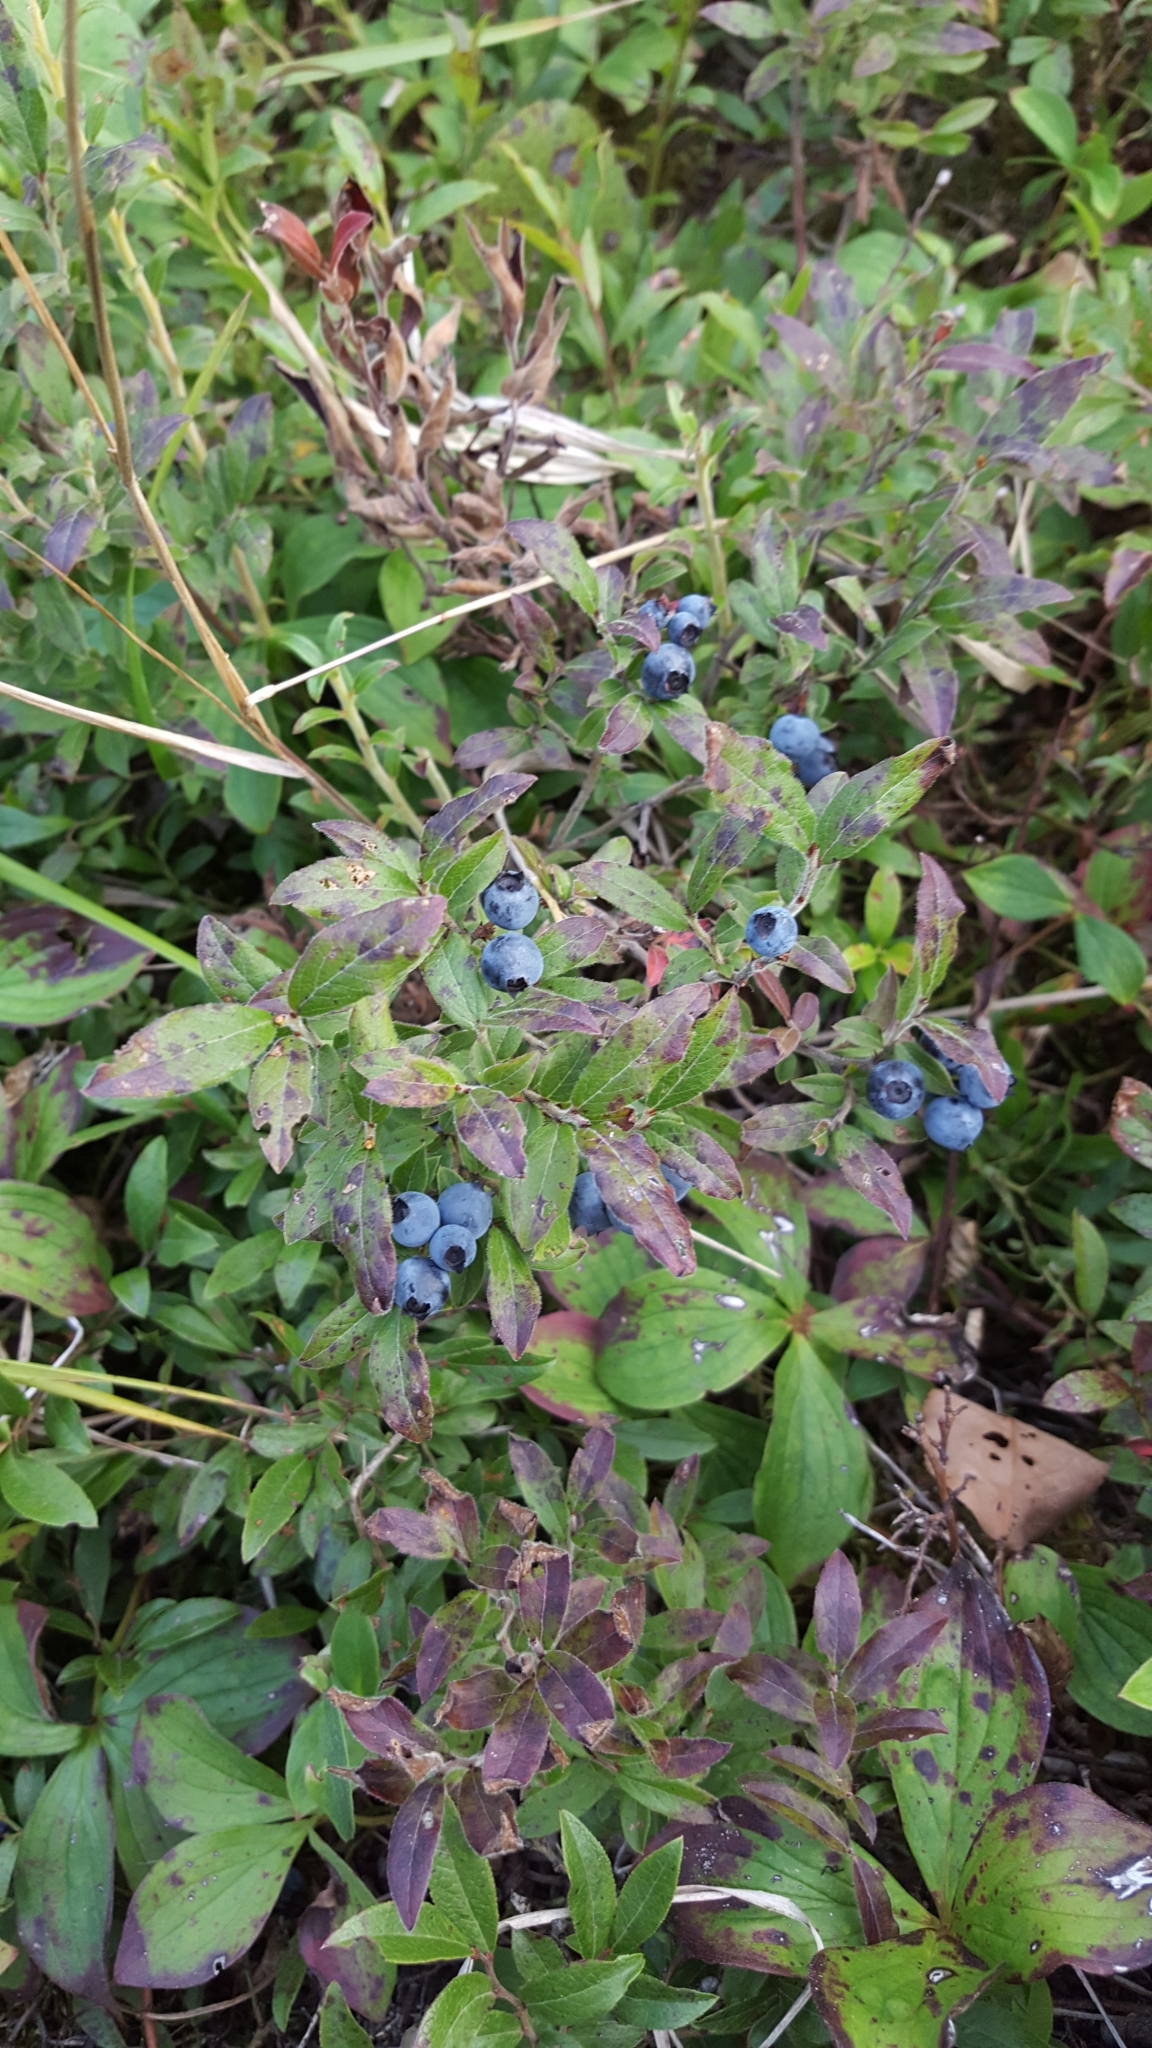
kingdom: Plantae
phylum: Tracheophyta
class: Magnoliopsida
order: Ericales
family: Ericaceae
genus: Vaccinium
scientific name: Vaccinium myrtilloides
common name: Canada blueberry
